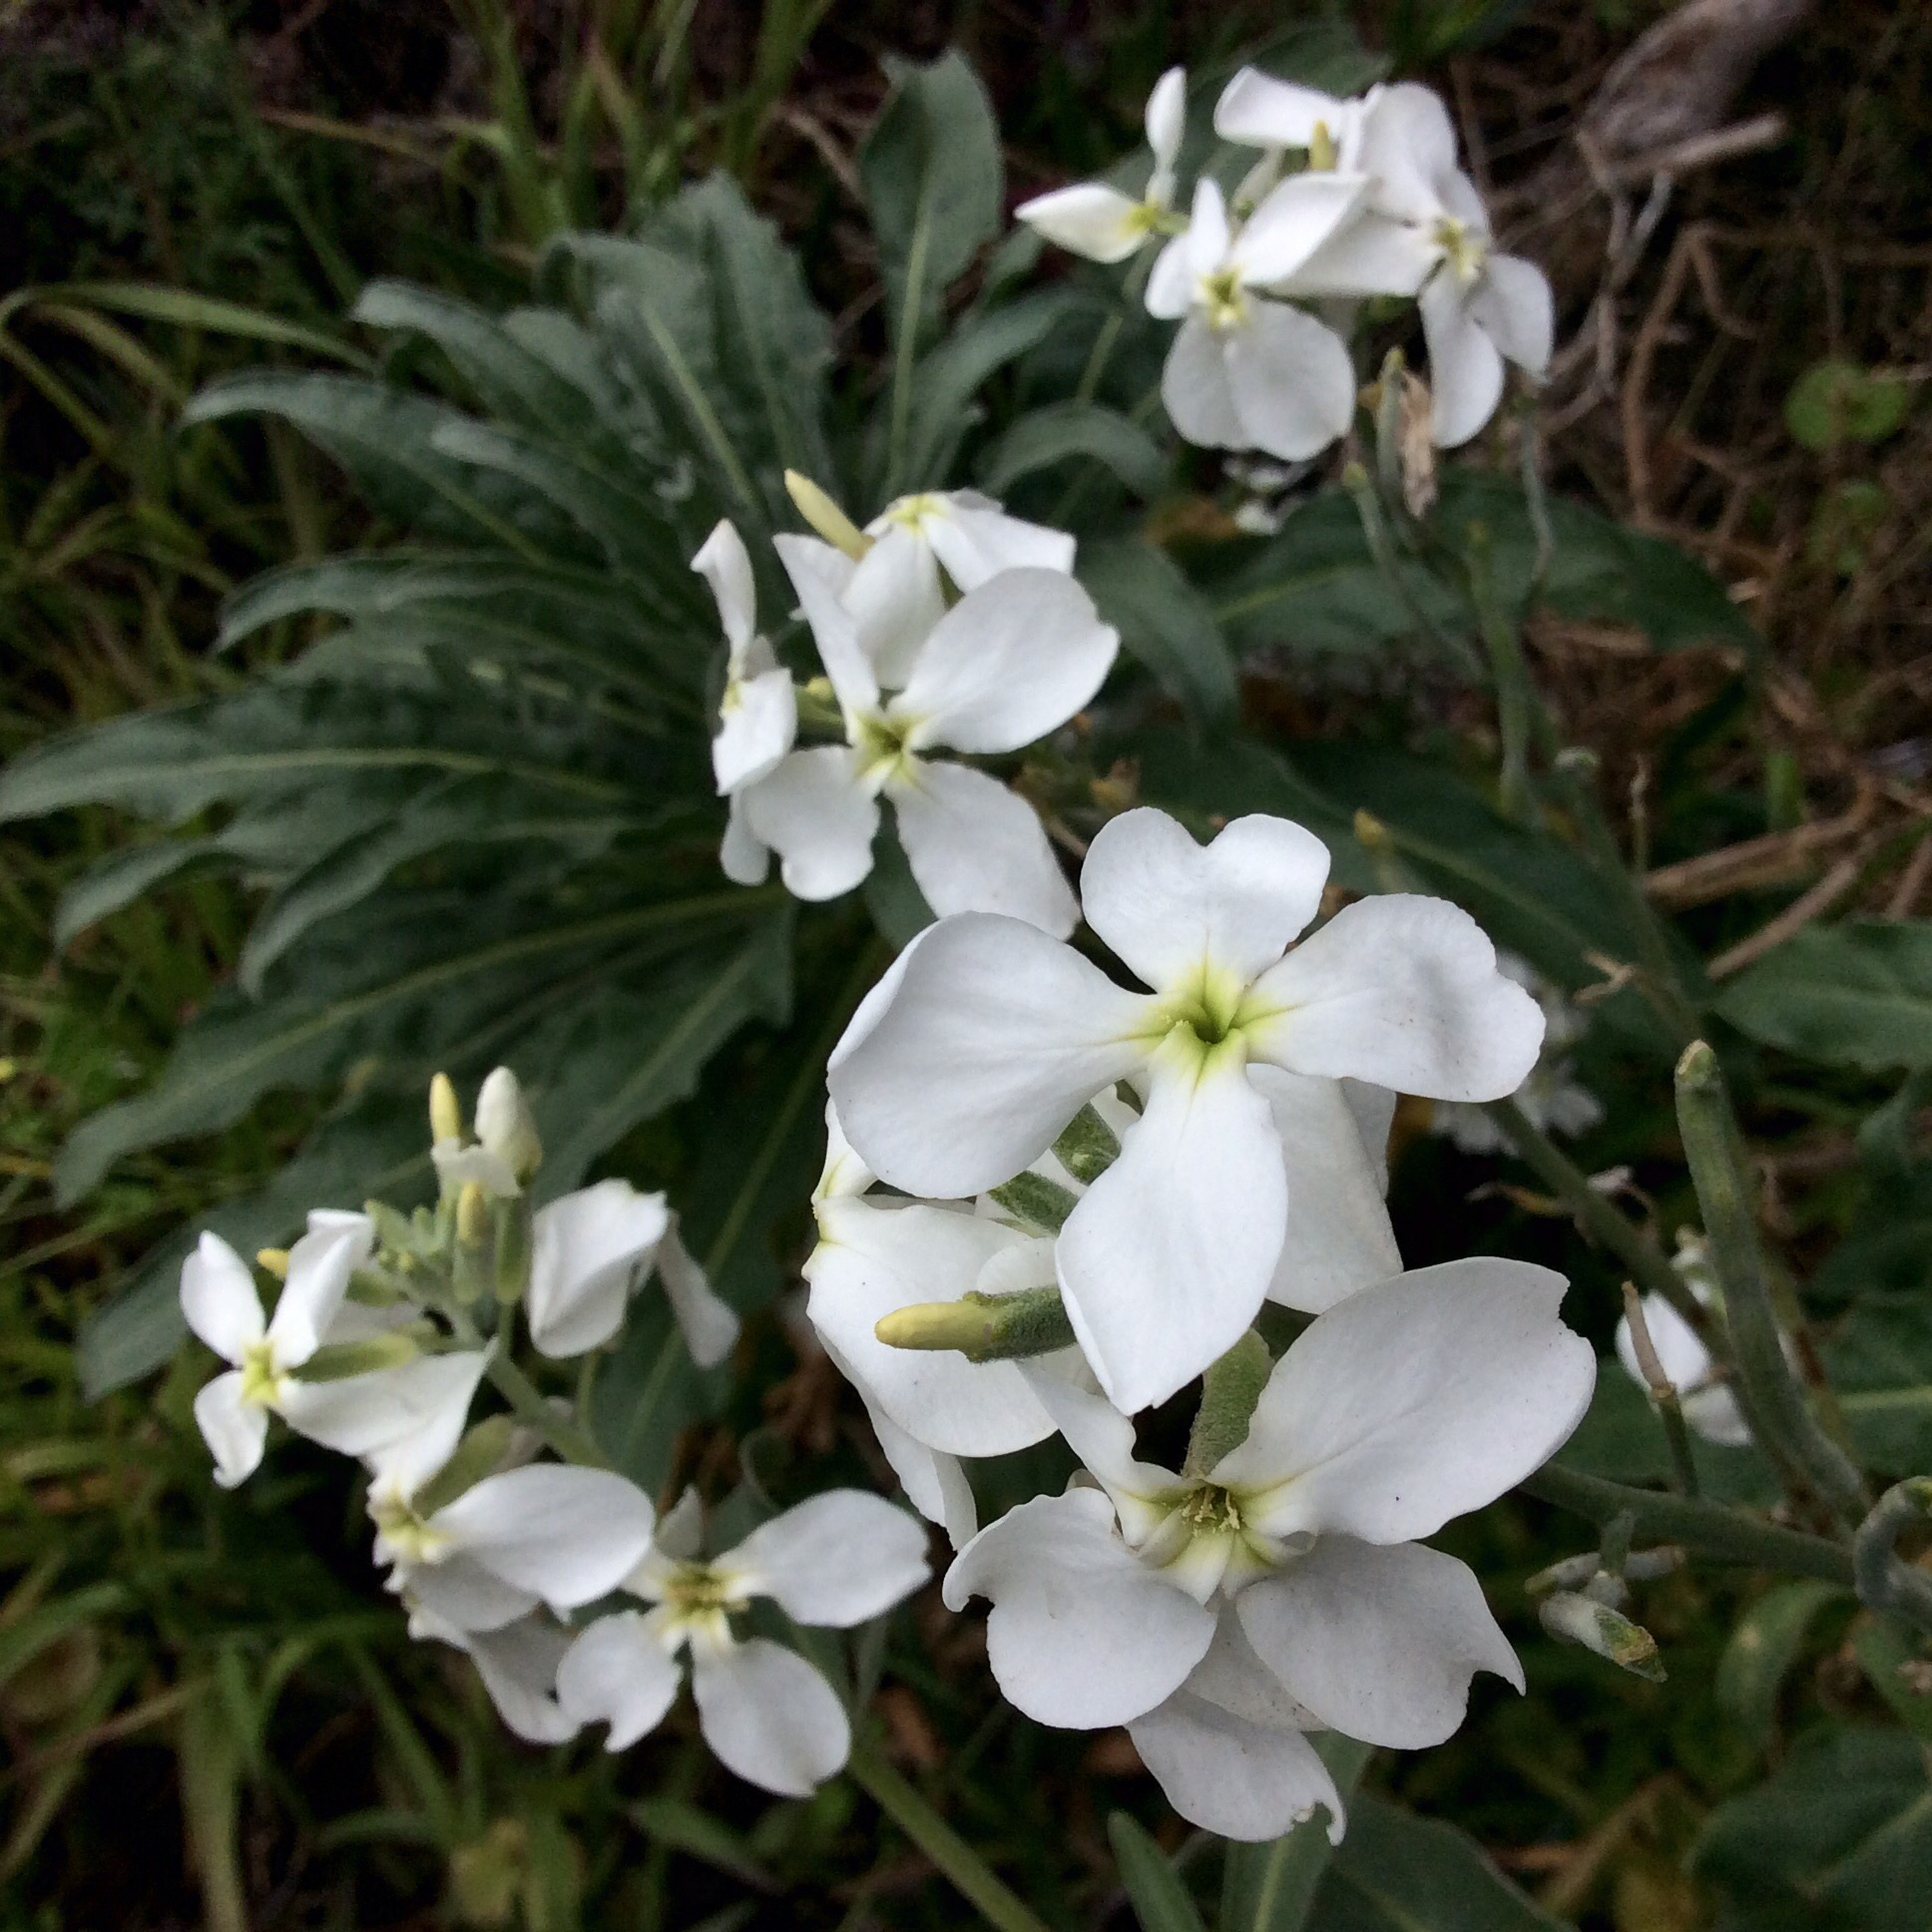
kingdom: Plantae
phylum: Tracheophyta
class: Magnoliopsida
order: Brassicales
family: Brassicaceae
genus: Matthiola
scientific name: Matthiola incana
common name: Hoary stock
